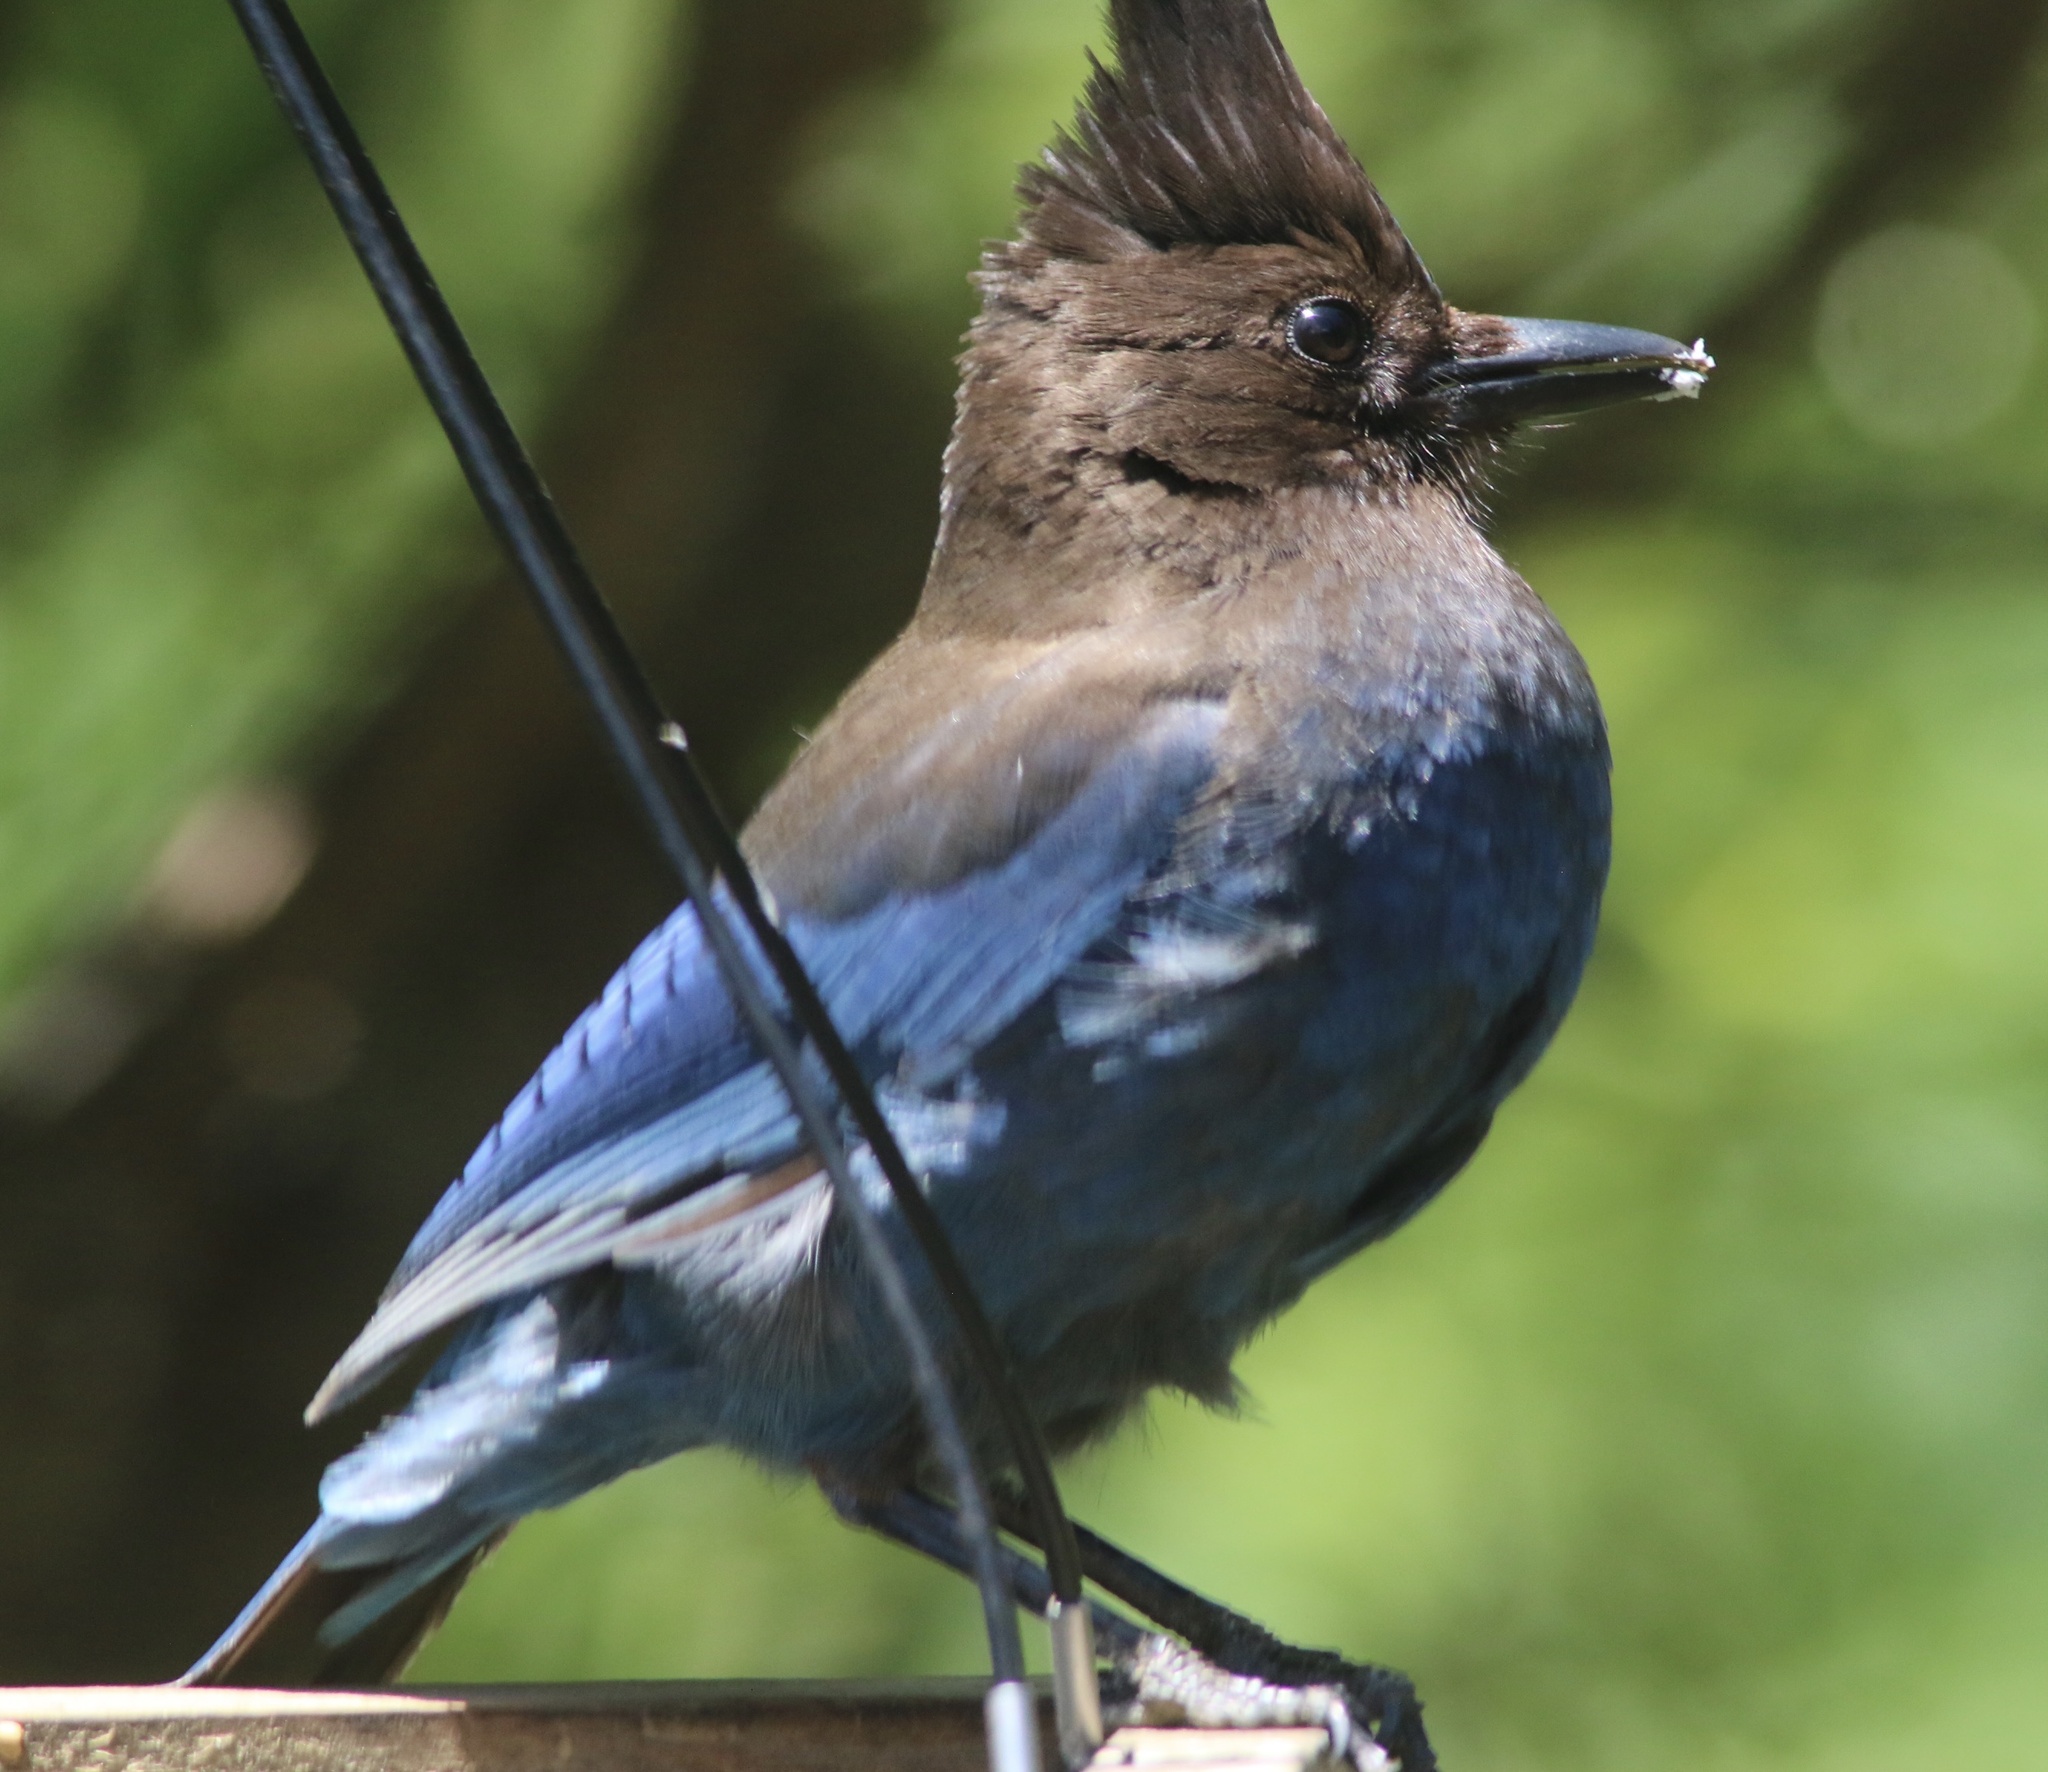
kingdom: Animalia
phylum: Chordata
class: Aves
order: Passeriformes
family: Corvidae
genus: Cyanocitta
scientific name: Cyanocitta stelleri
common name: Steller's jay
